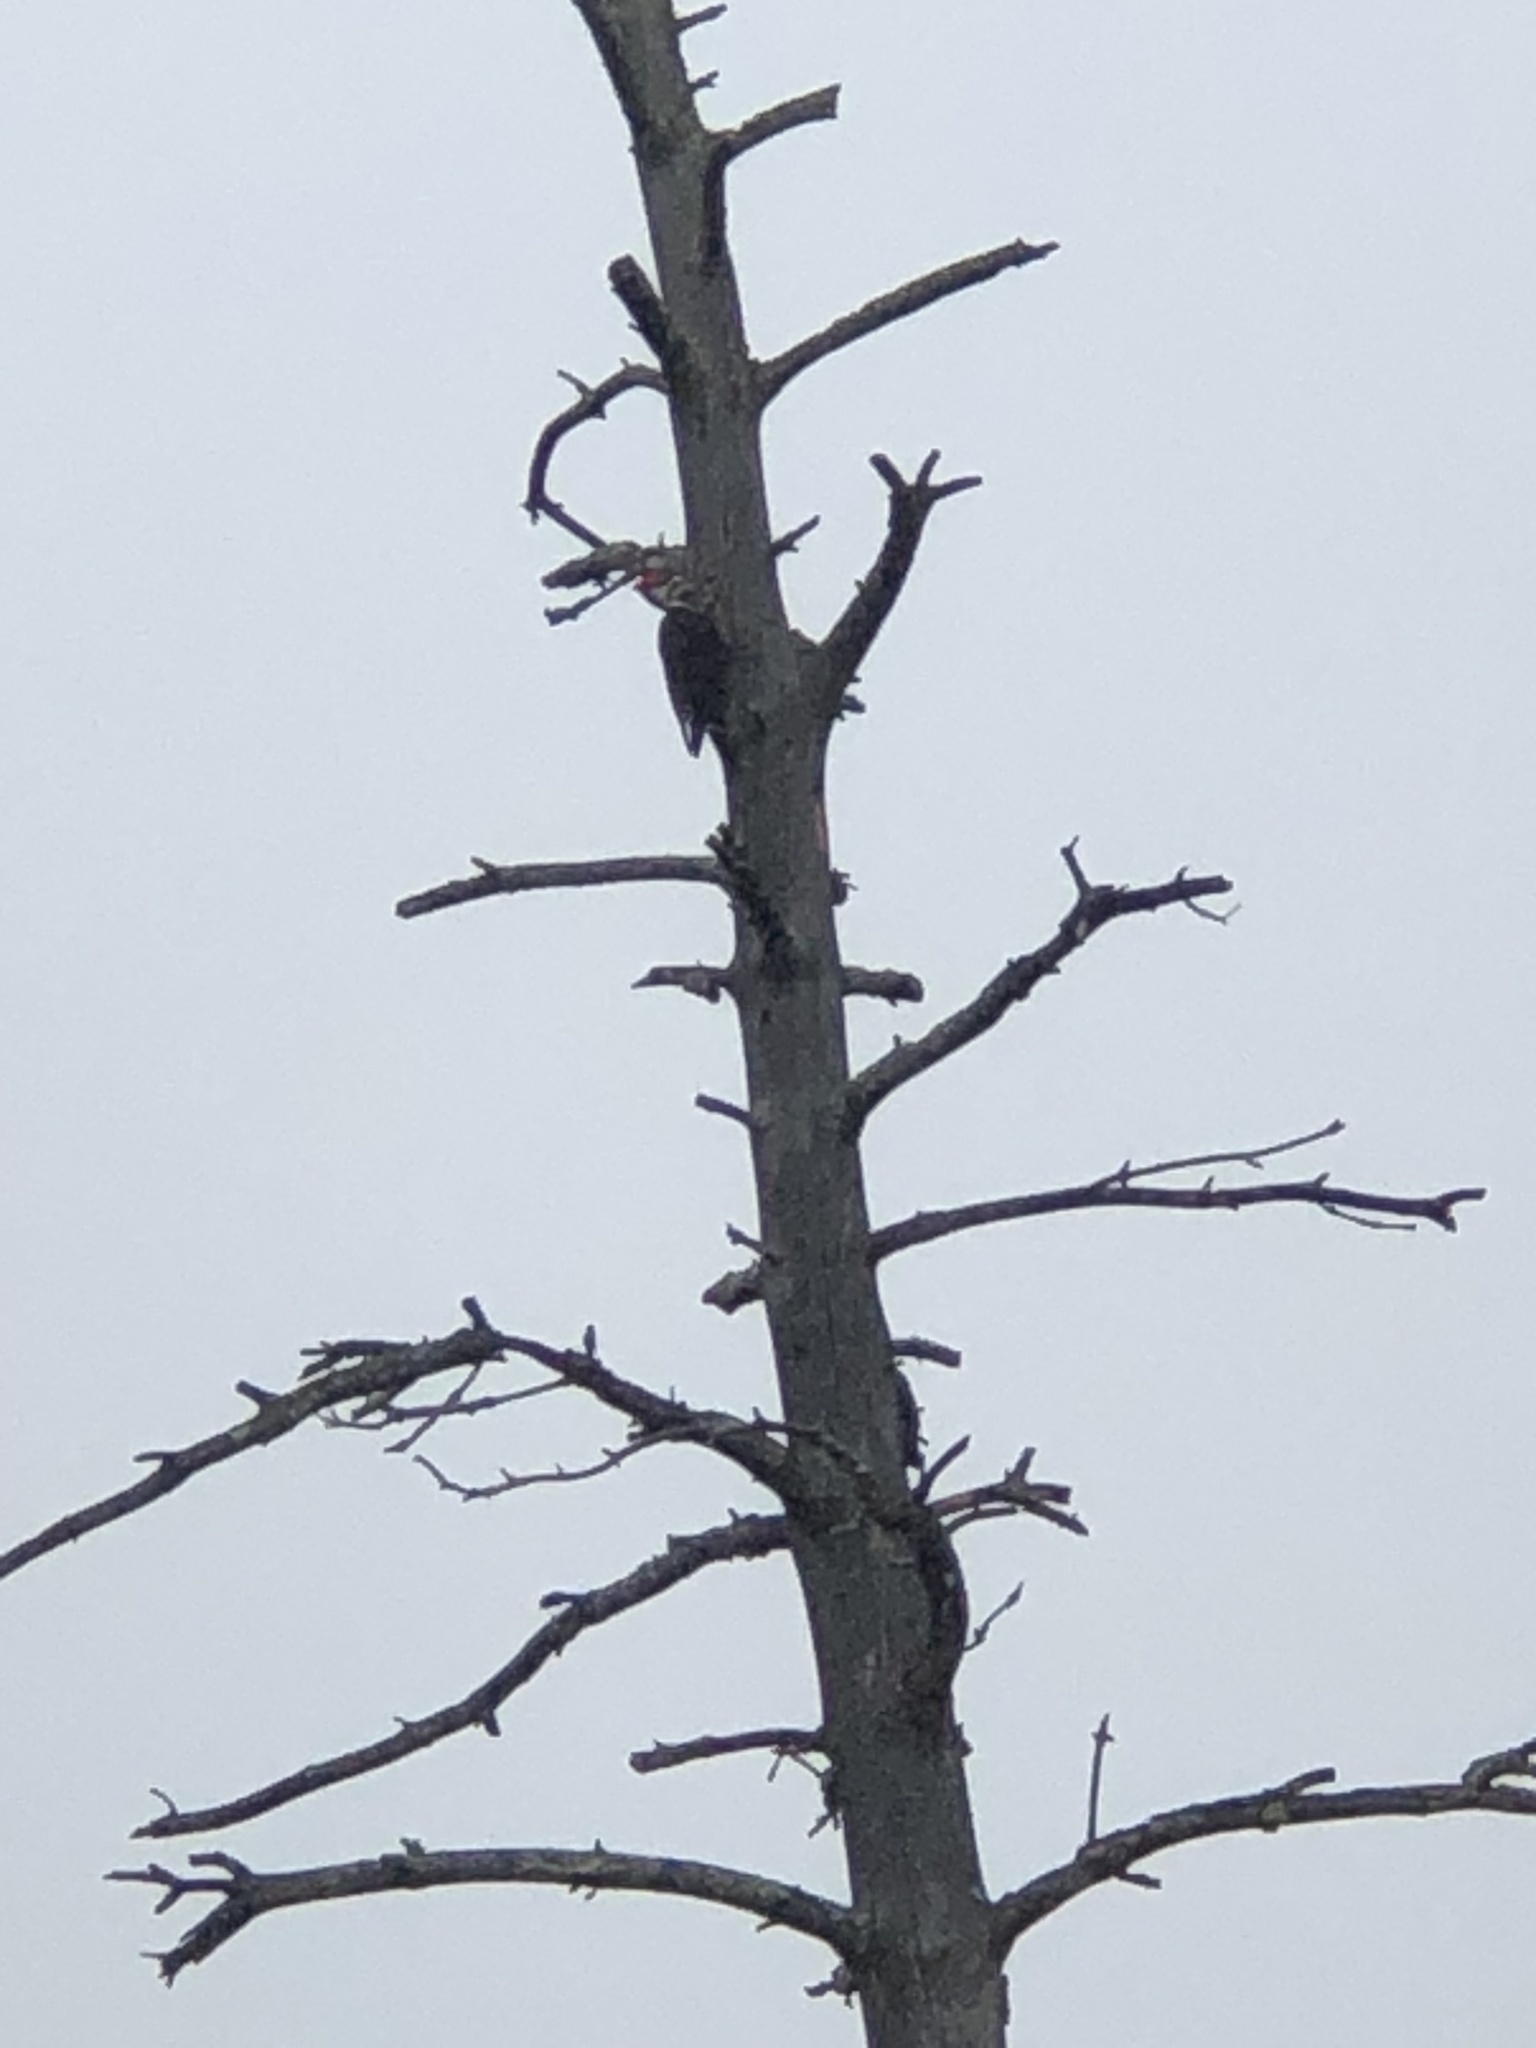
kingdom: Animalia
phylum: Chordata
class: Aves
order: Piciformes
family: Picidae
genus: Dryocopus
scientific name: Dryocopus pileatus
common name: Pileated woodpecker
